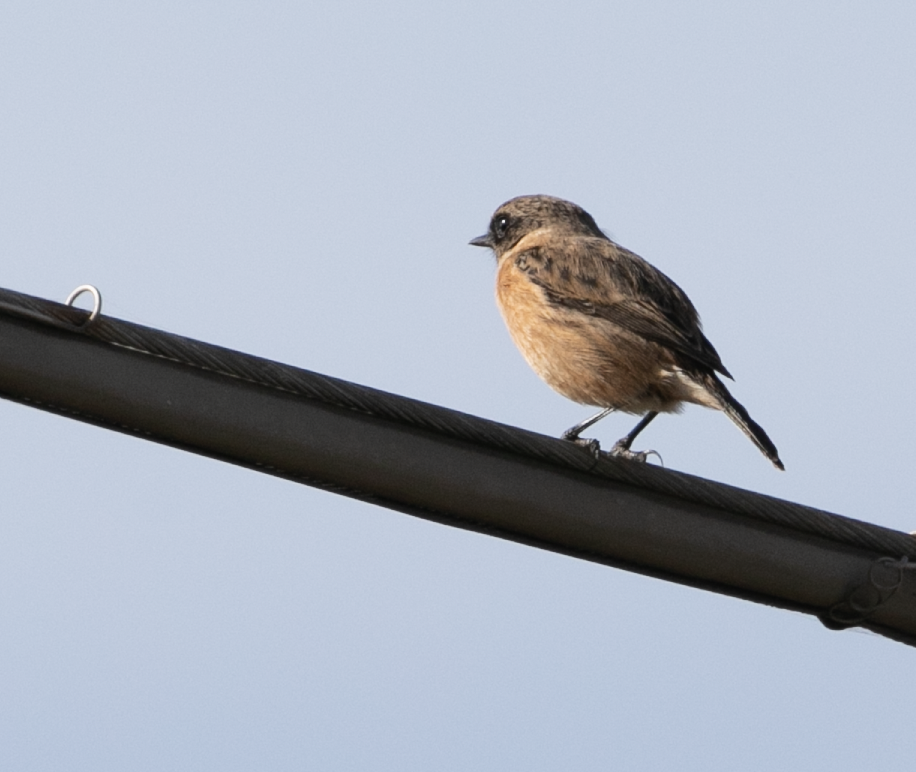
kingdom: Animalia
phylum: Chordata
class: Aves
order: Passeriformes
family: Muscicapidae
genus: Saxicola
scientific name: Saxicola rubicola
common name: European stonechat
